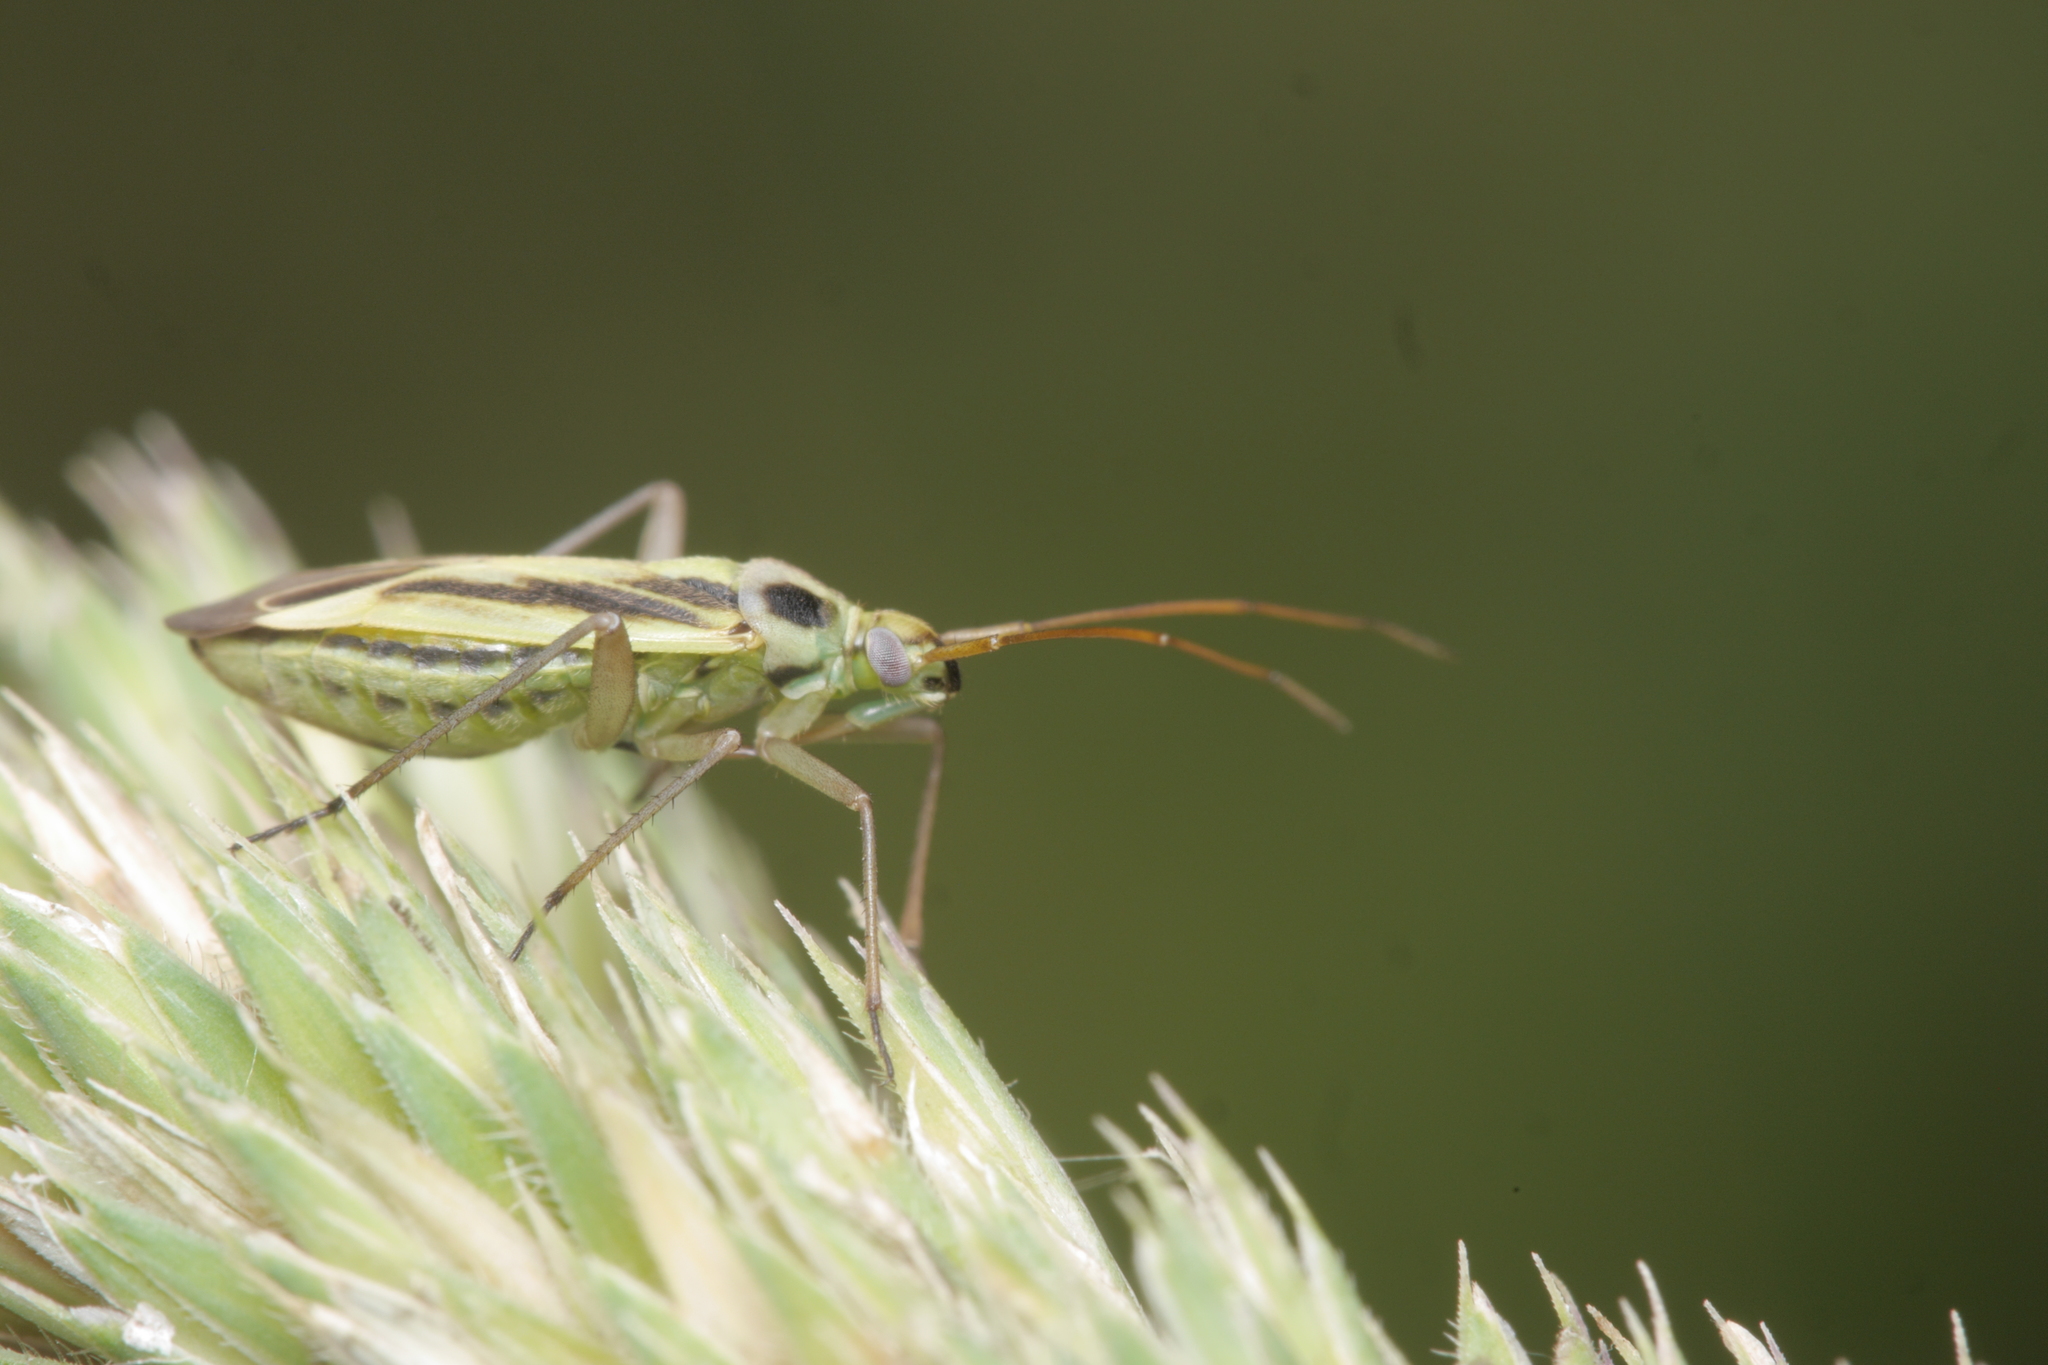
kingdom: Animalia
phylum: Arthropoda
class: Insecta
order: Hemiptera
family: Miridae
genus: Stenotus
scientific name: Stenotus binotatus
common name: Plant bug
